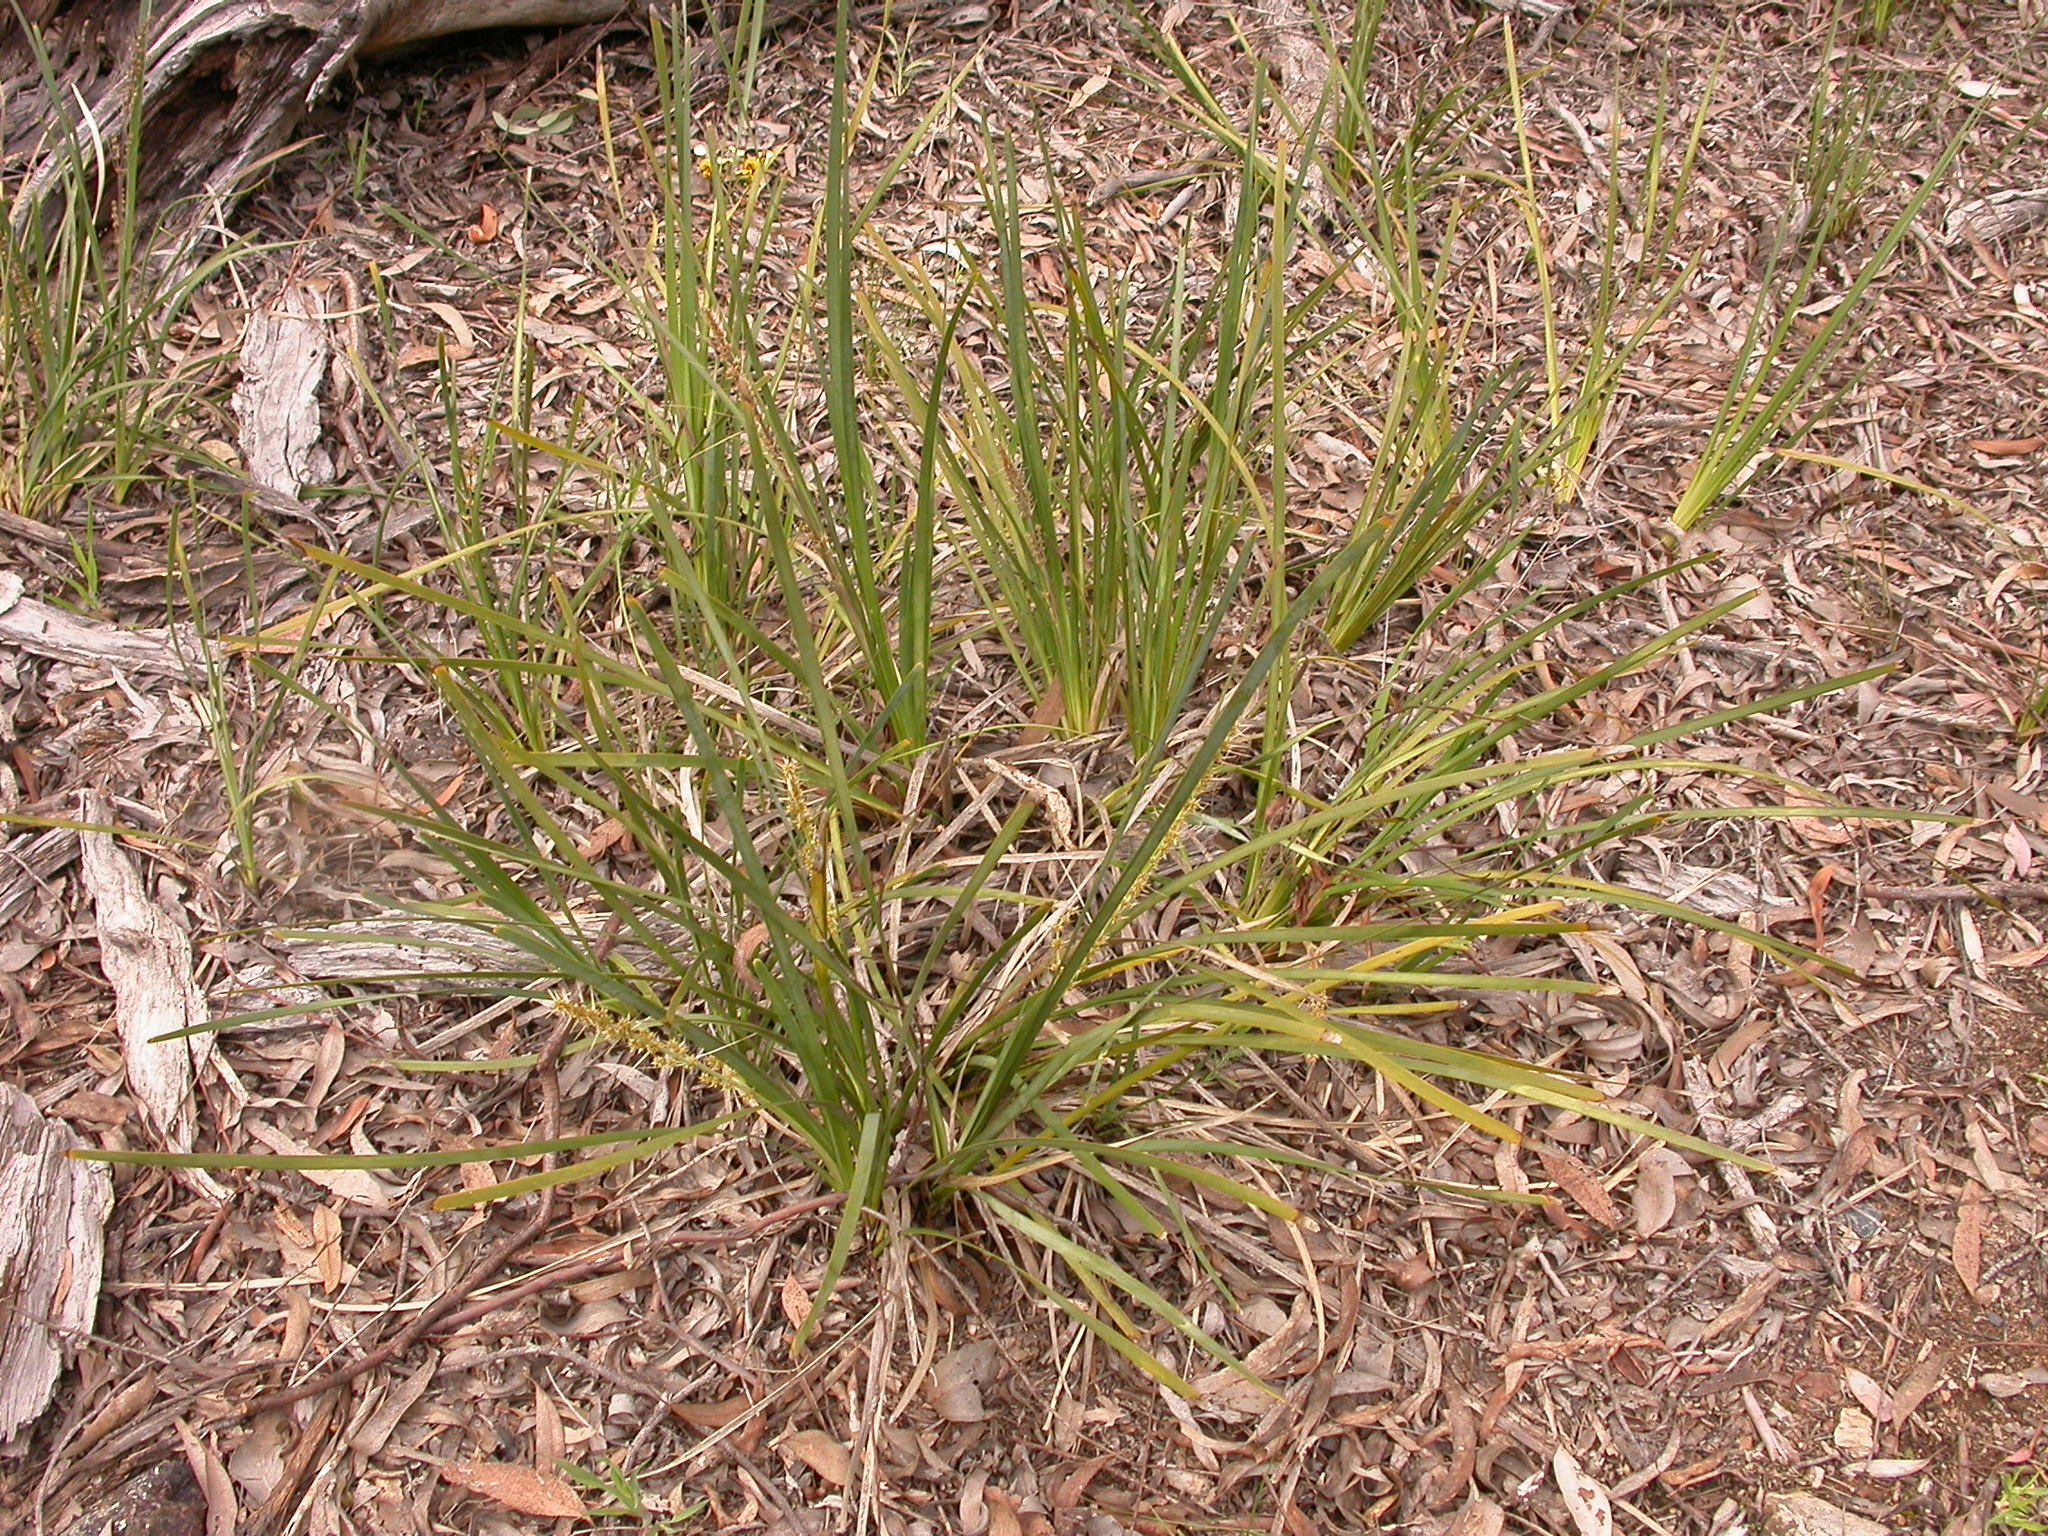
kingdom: Plantae
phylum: Tracheophyta
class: Liliopsida
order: Asparagales
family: Asparagaceae
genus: Lomandra
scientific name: Lomandra longifolia
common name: Longleaf mat-rush
